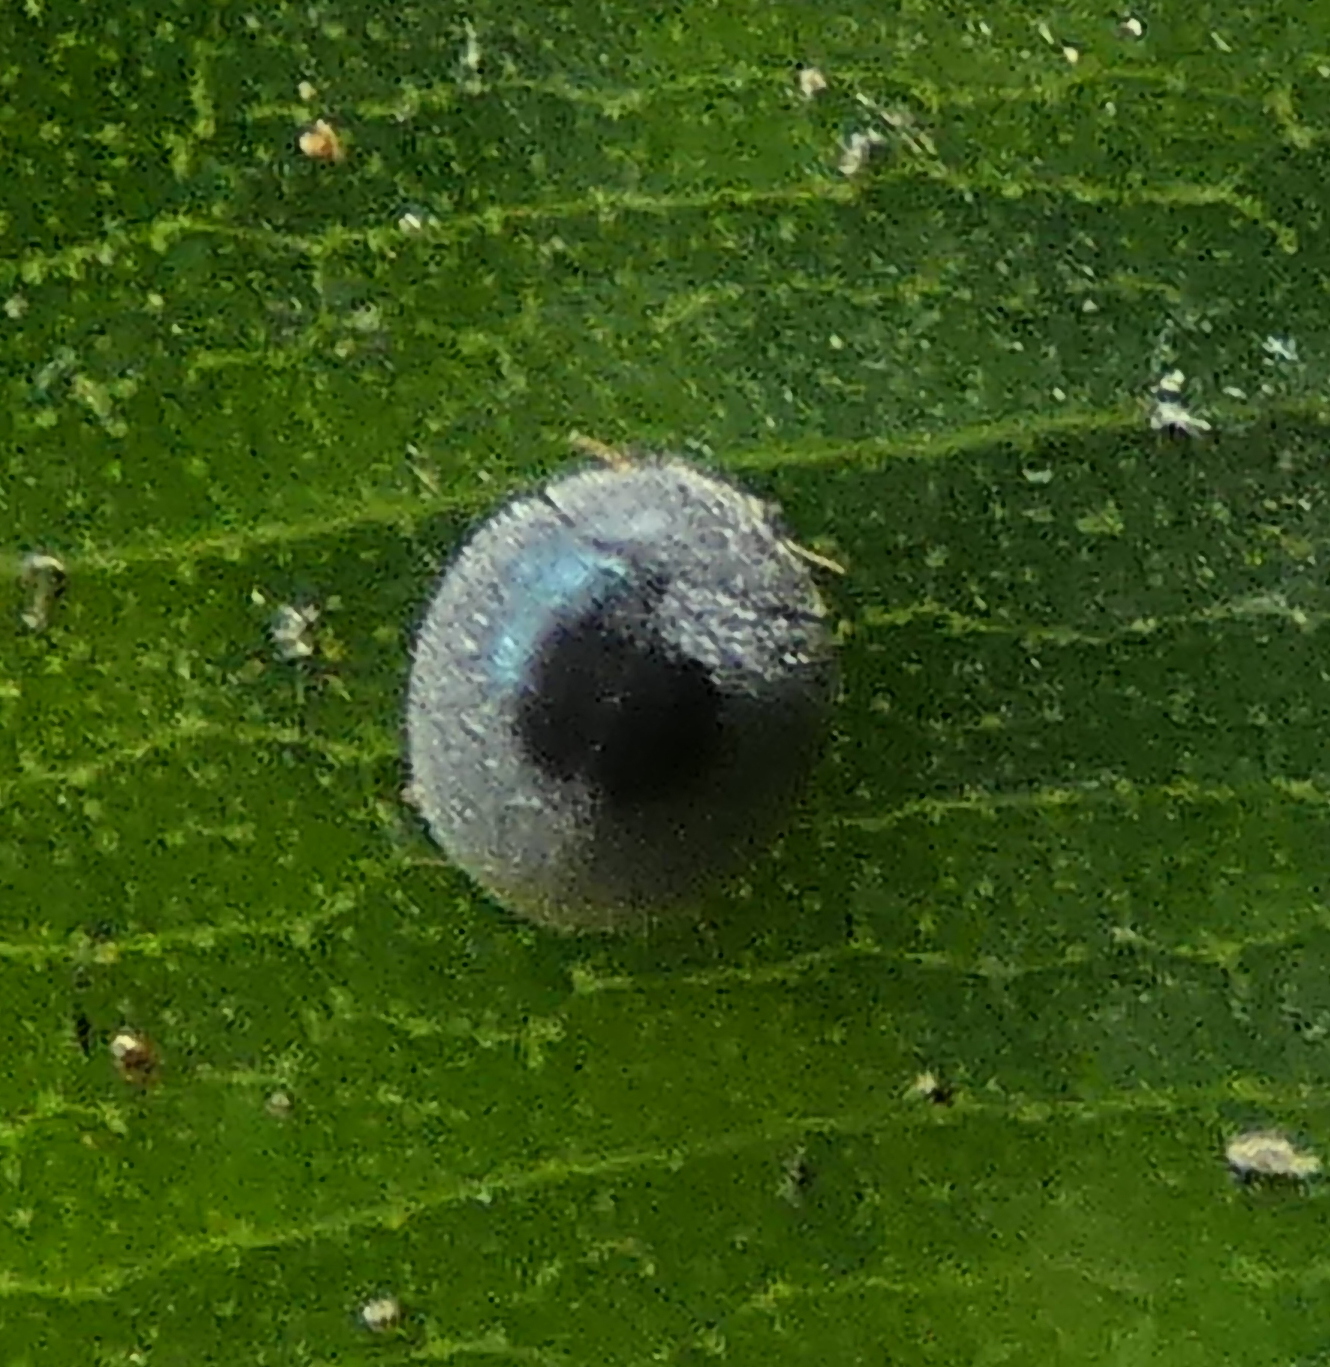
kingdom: Animalia
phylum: Arthropoda
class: Insecta
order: Coleoptera
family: Coccinellidae
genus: Azya
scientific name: Azya
